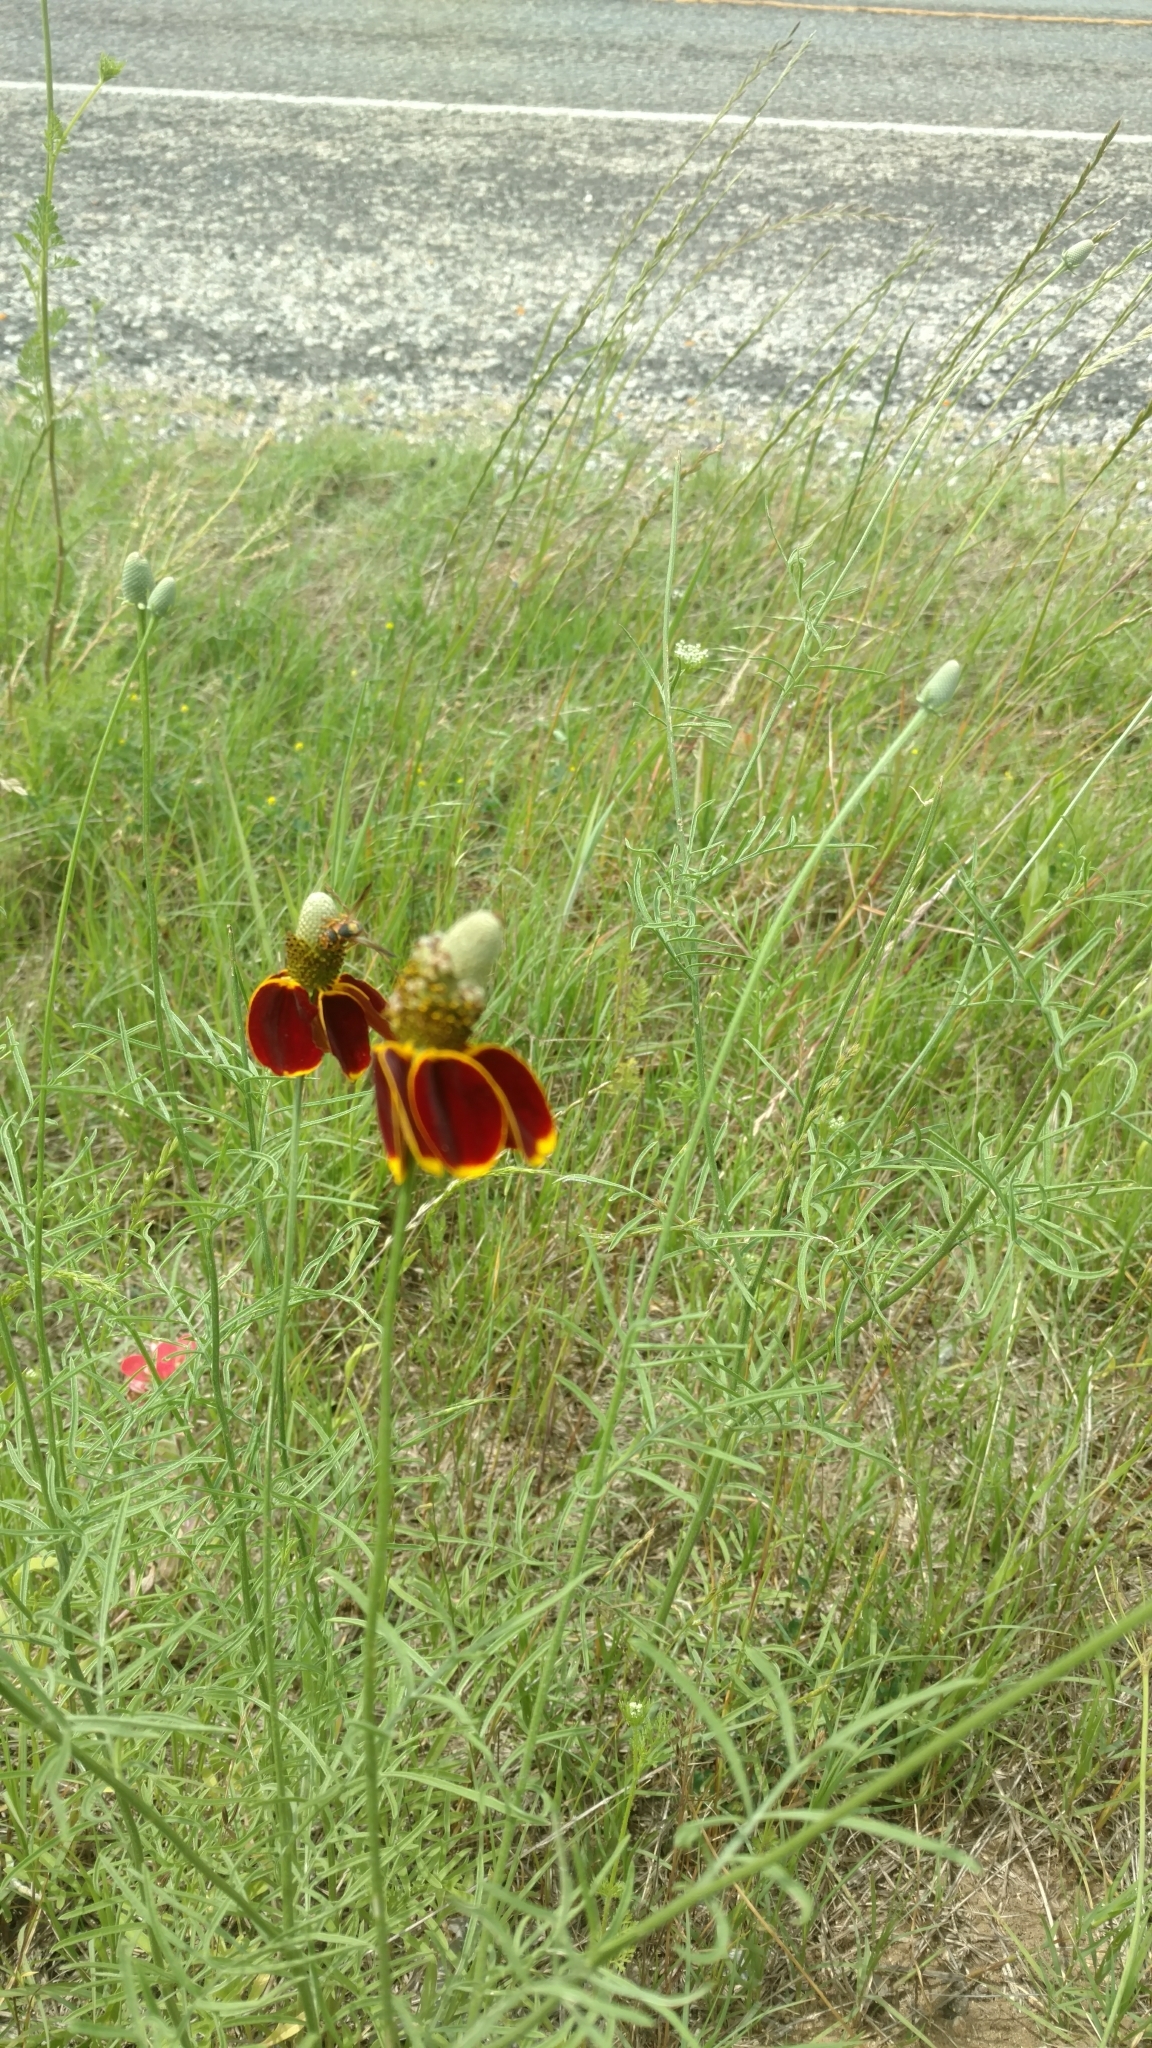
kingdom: Plantae
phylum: Tracheophyta
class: Magnoliopsida
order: Asterales
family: Asteraceae
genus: Ratibida
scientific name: Ratibida columnifera
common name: Prairie coneflower
